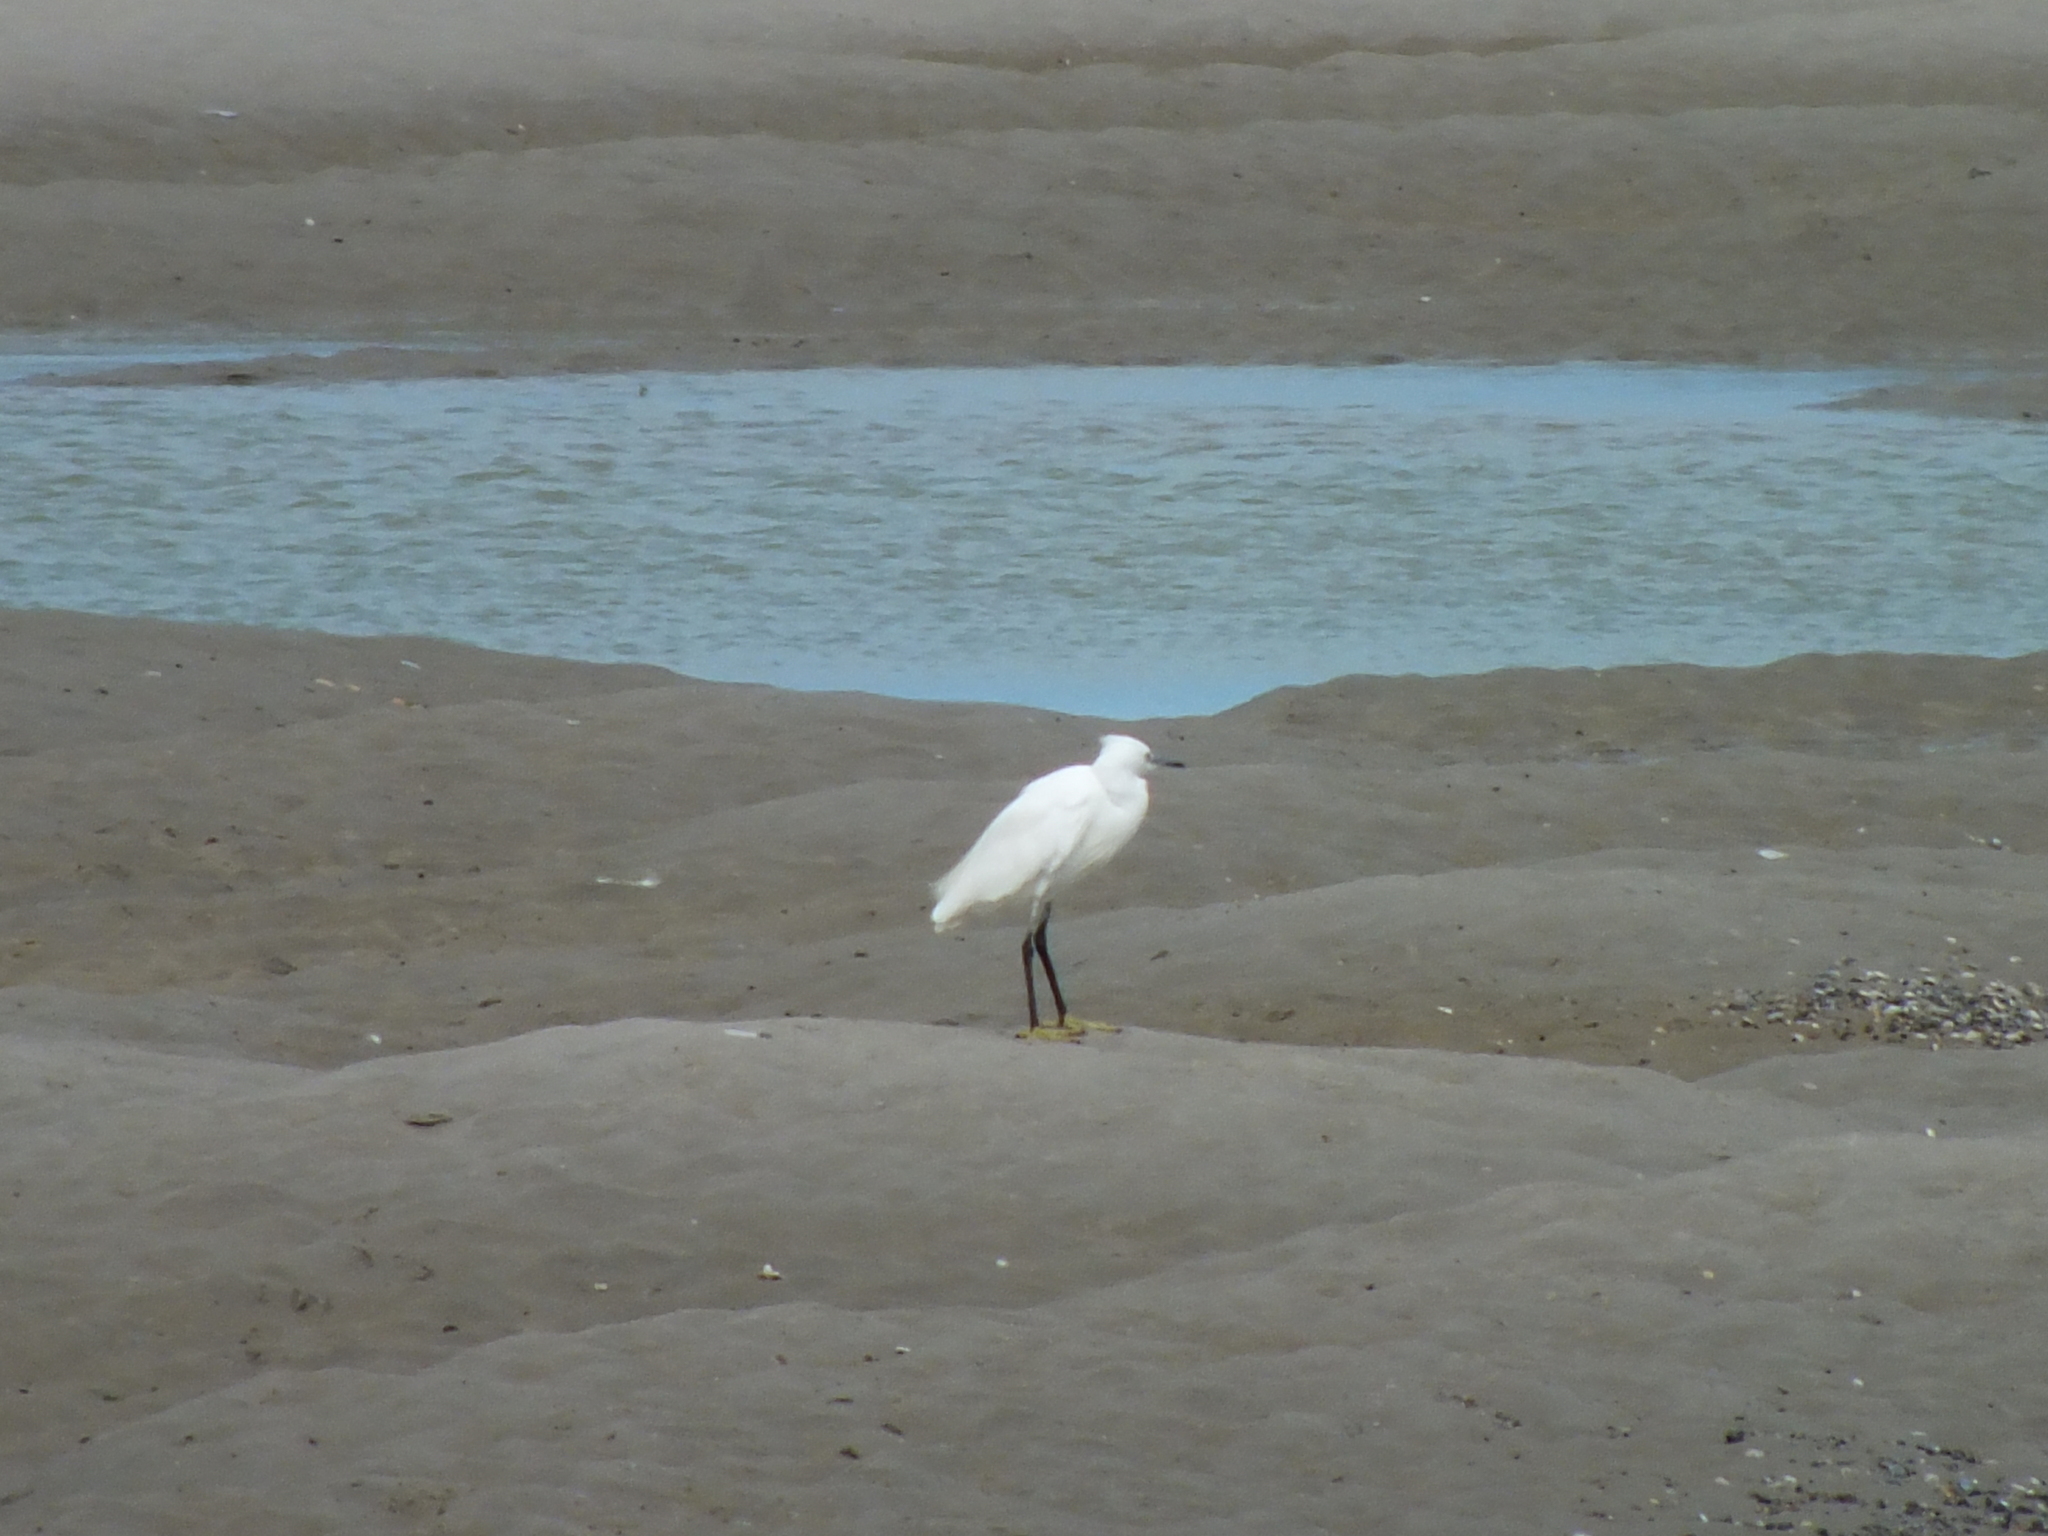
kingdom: Animalia
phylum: Chordata
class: Aves
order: Pelecaniformes
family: Ardeidae
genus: Egretta
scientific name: Egretta garzetta
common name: Little egret
